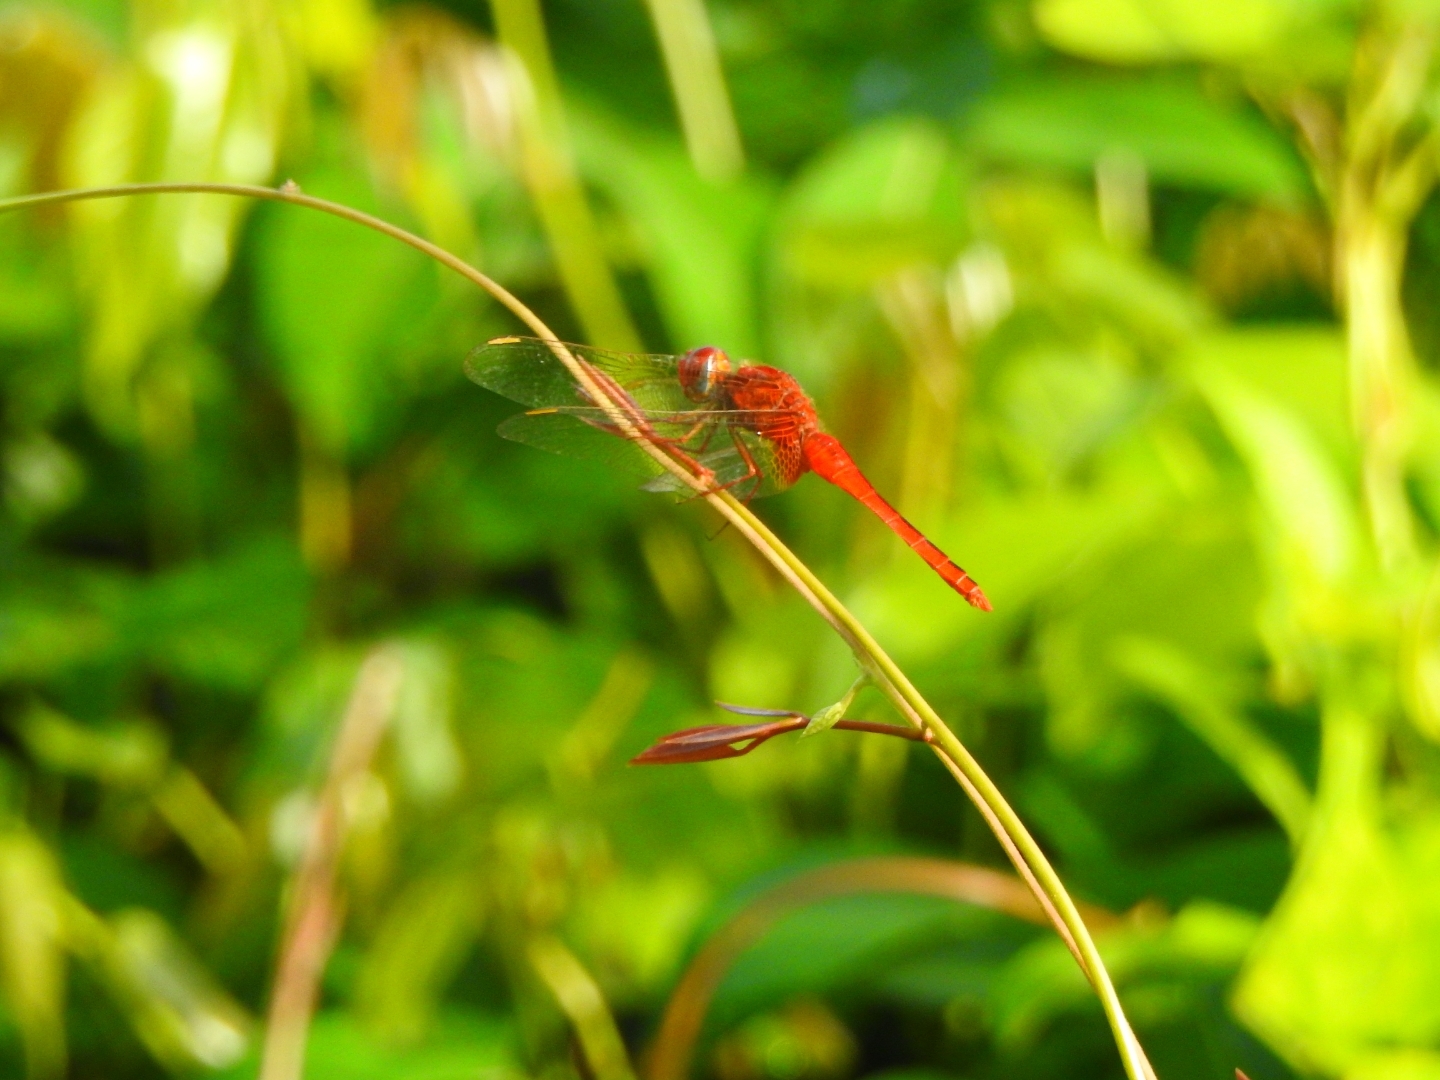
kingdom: Animalia
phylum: Arthropoda
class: Insecta
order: Odonata
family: Libellulidae
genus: Crocothemis
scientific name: Crocothemis servilia
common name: Scarlet skimmer
